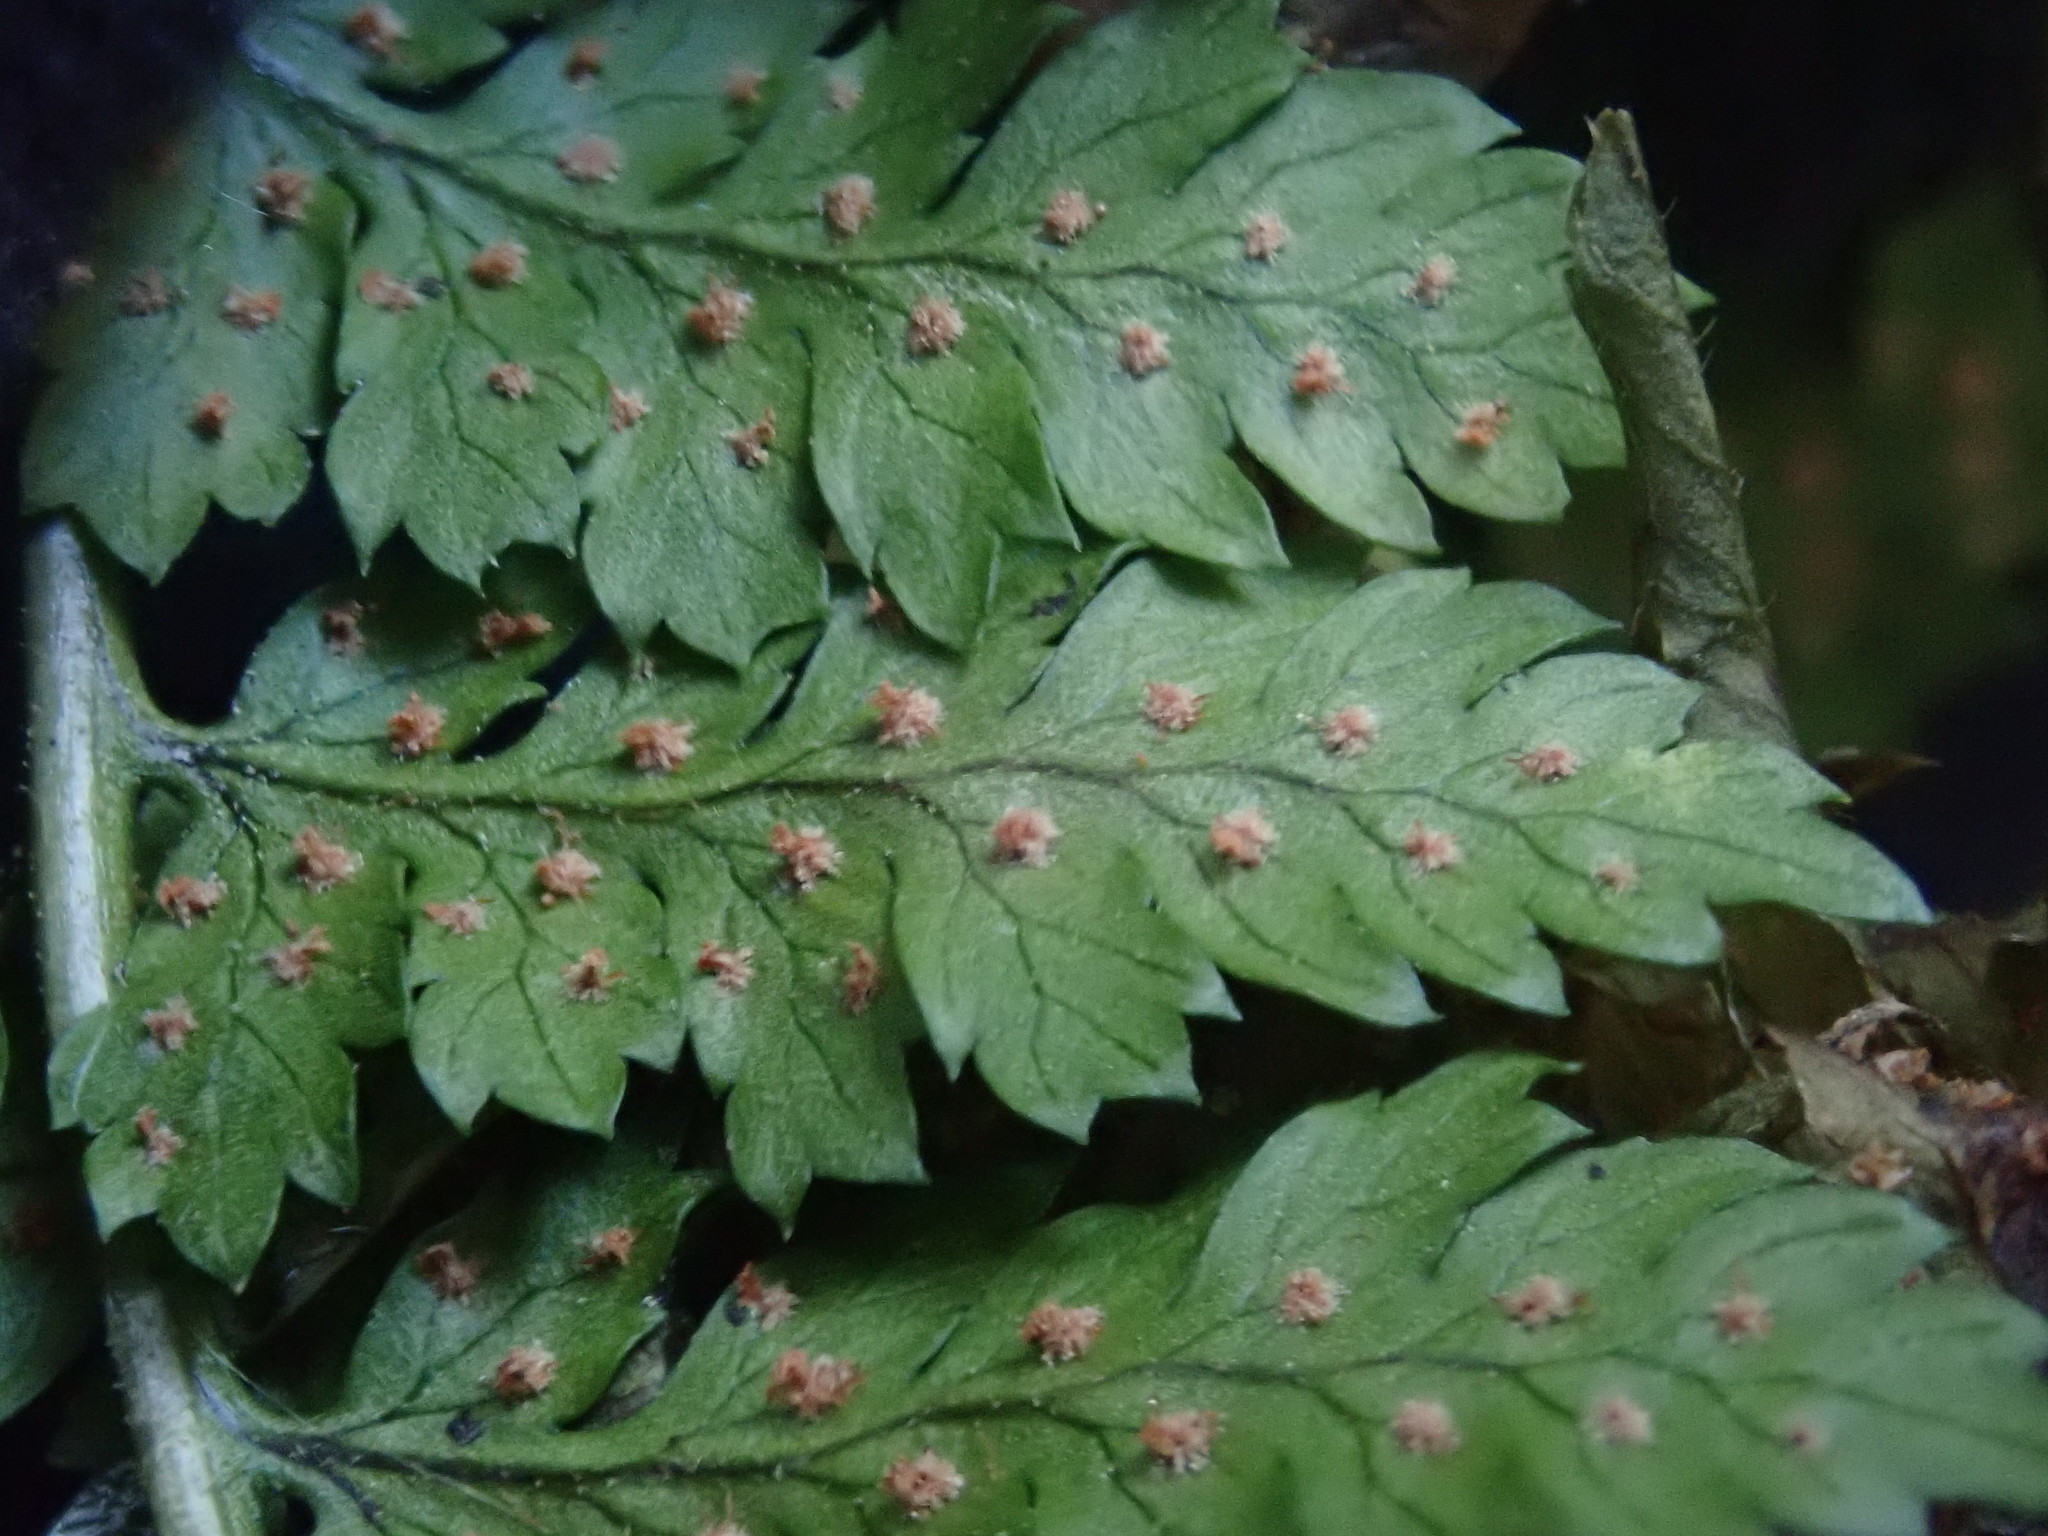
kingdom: Plantae
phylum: Tracheophyta
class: Polypodiopsida
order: Polypodiales
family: Dryopteridaceae
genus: Dryopteris
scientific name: Dryopteris intermedia
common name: Evergreen wood fern
